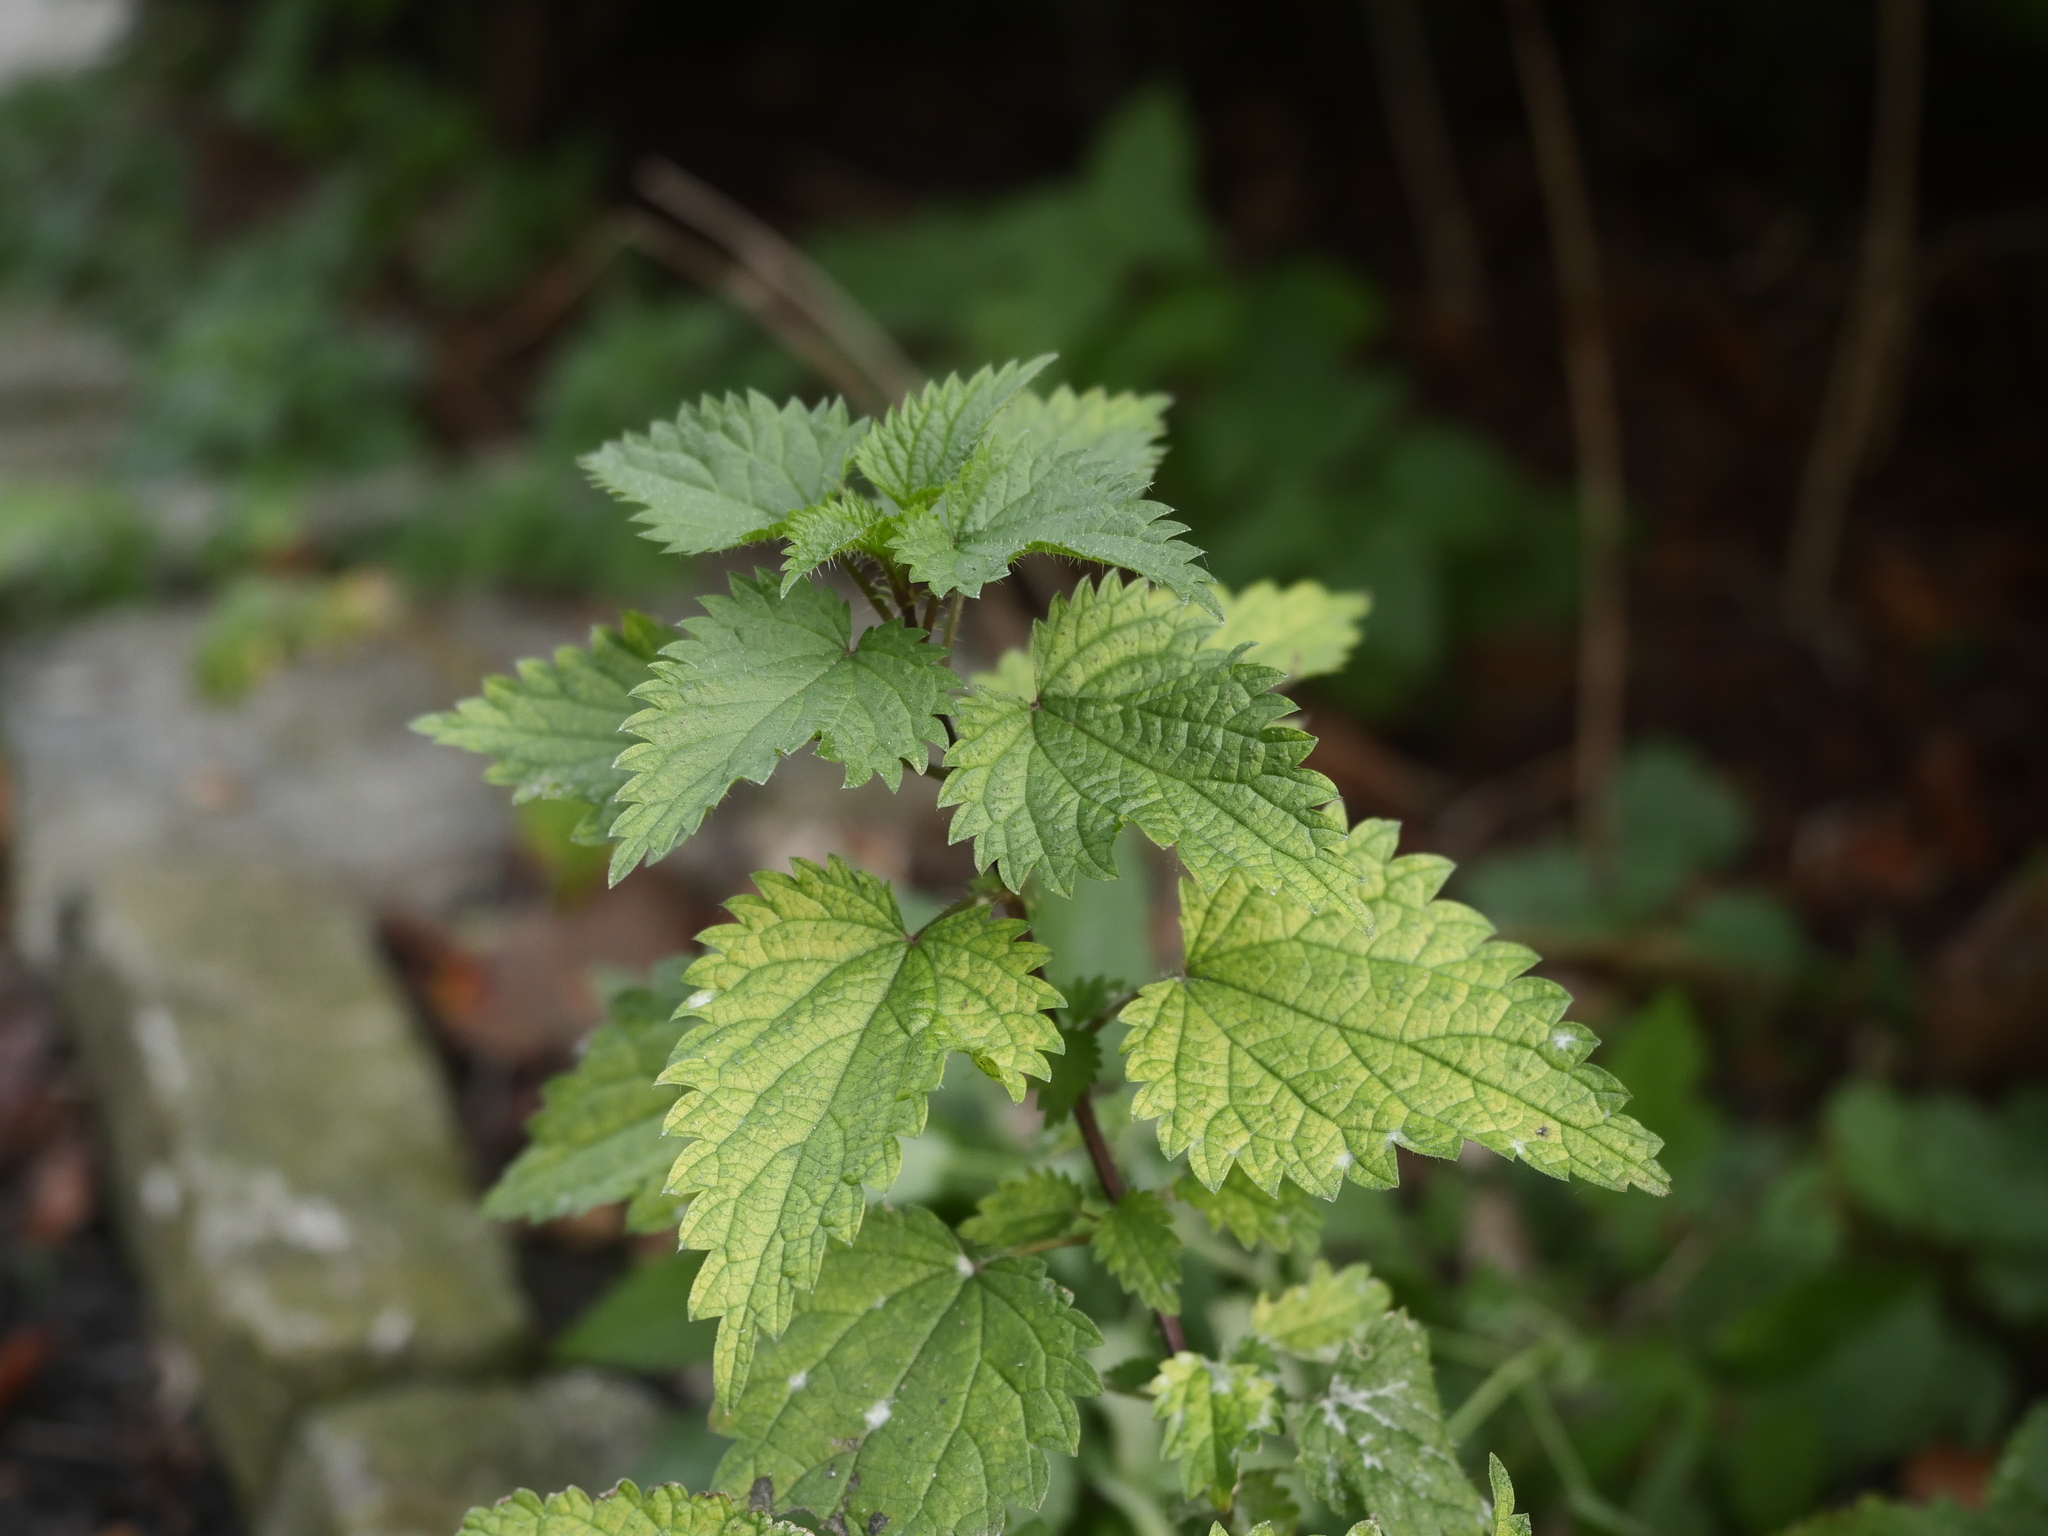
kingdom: Plantae
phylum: Tracheophyta
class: Magnoliopsida
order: Rosales
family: Urticaceae
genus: Urtica
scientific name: Urtica dioica
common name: Common nettle
